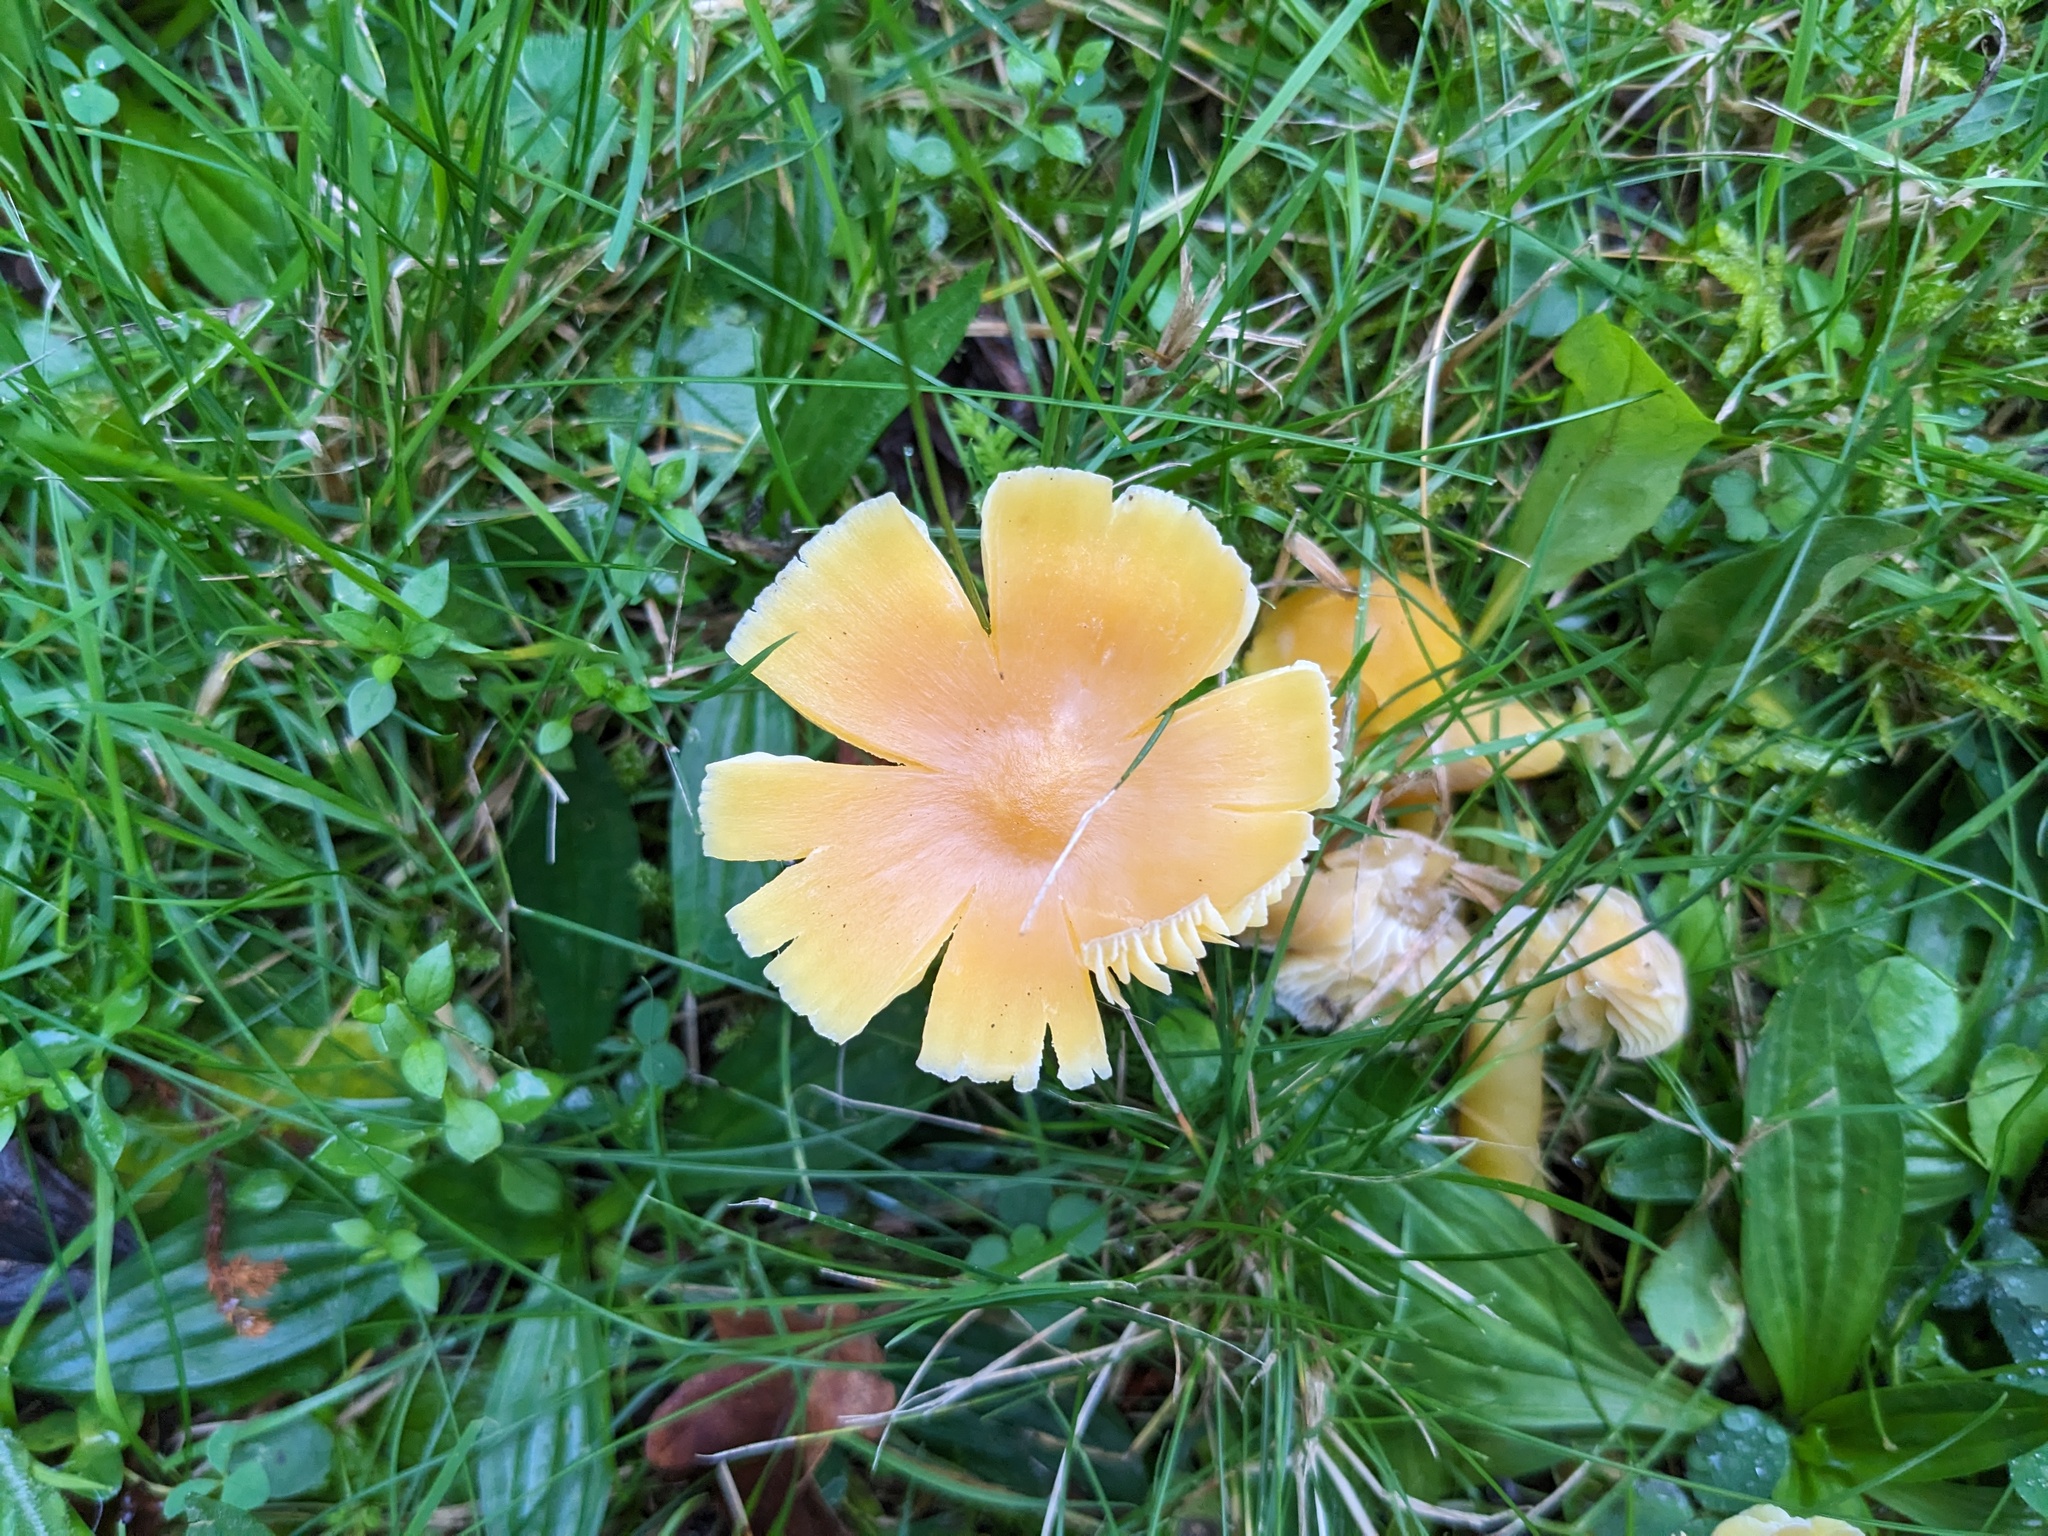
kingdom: Fungi
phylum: Basidiomycota
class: Agaricomycetes
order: Agaricales
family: Hygrophoraceae
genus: Hygrocybe
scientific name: Hygrocybe quieta
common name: Oily waxcap
